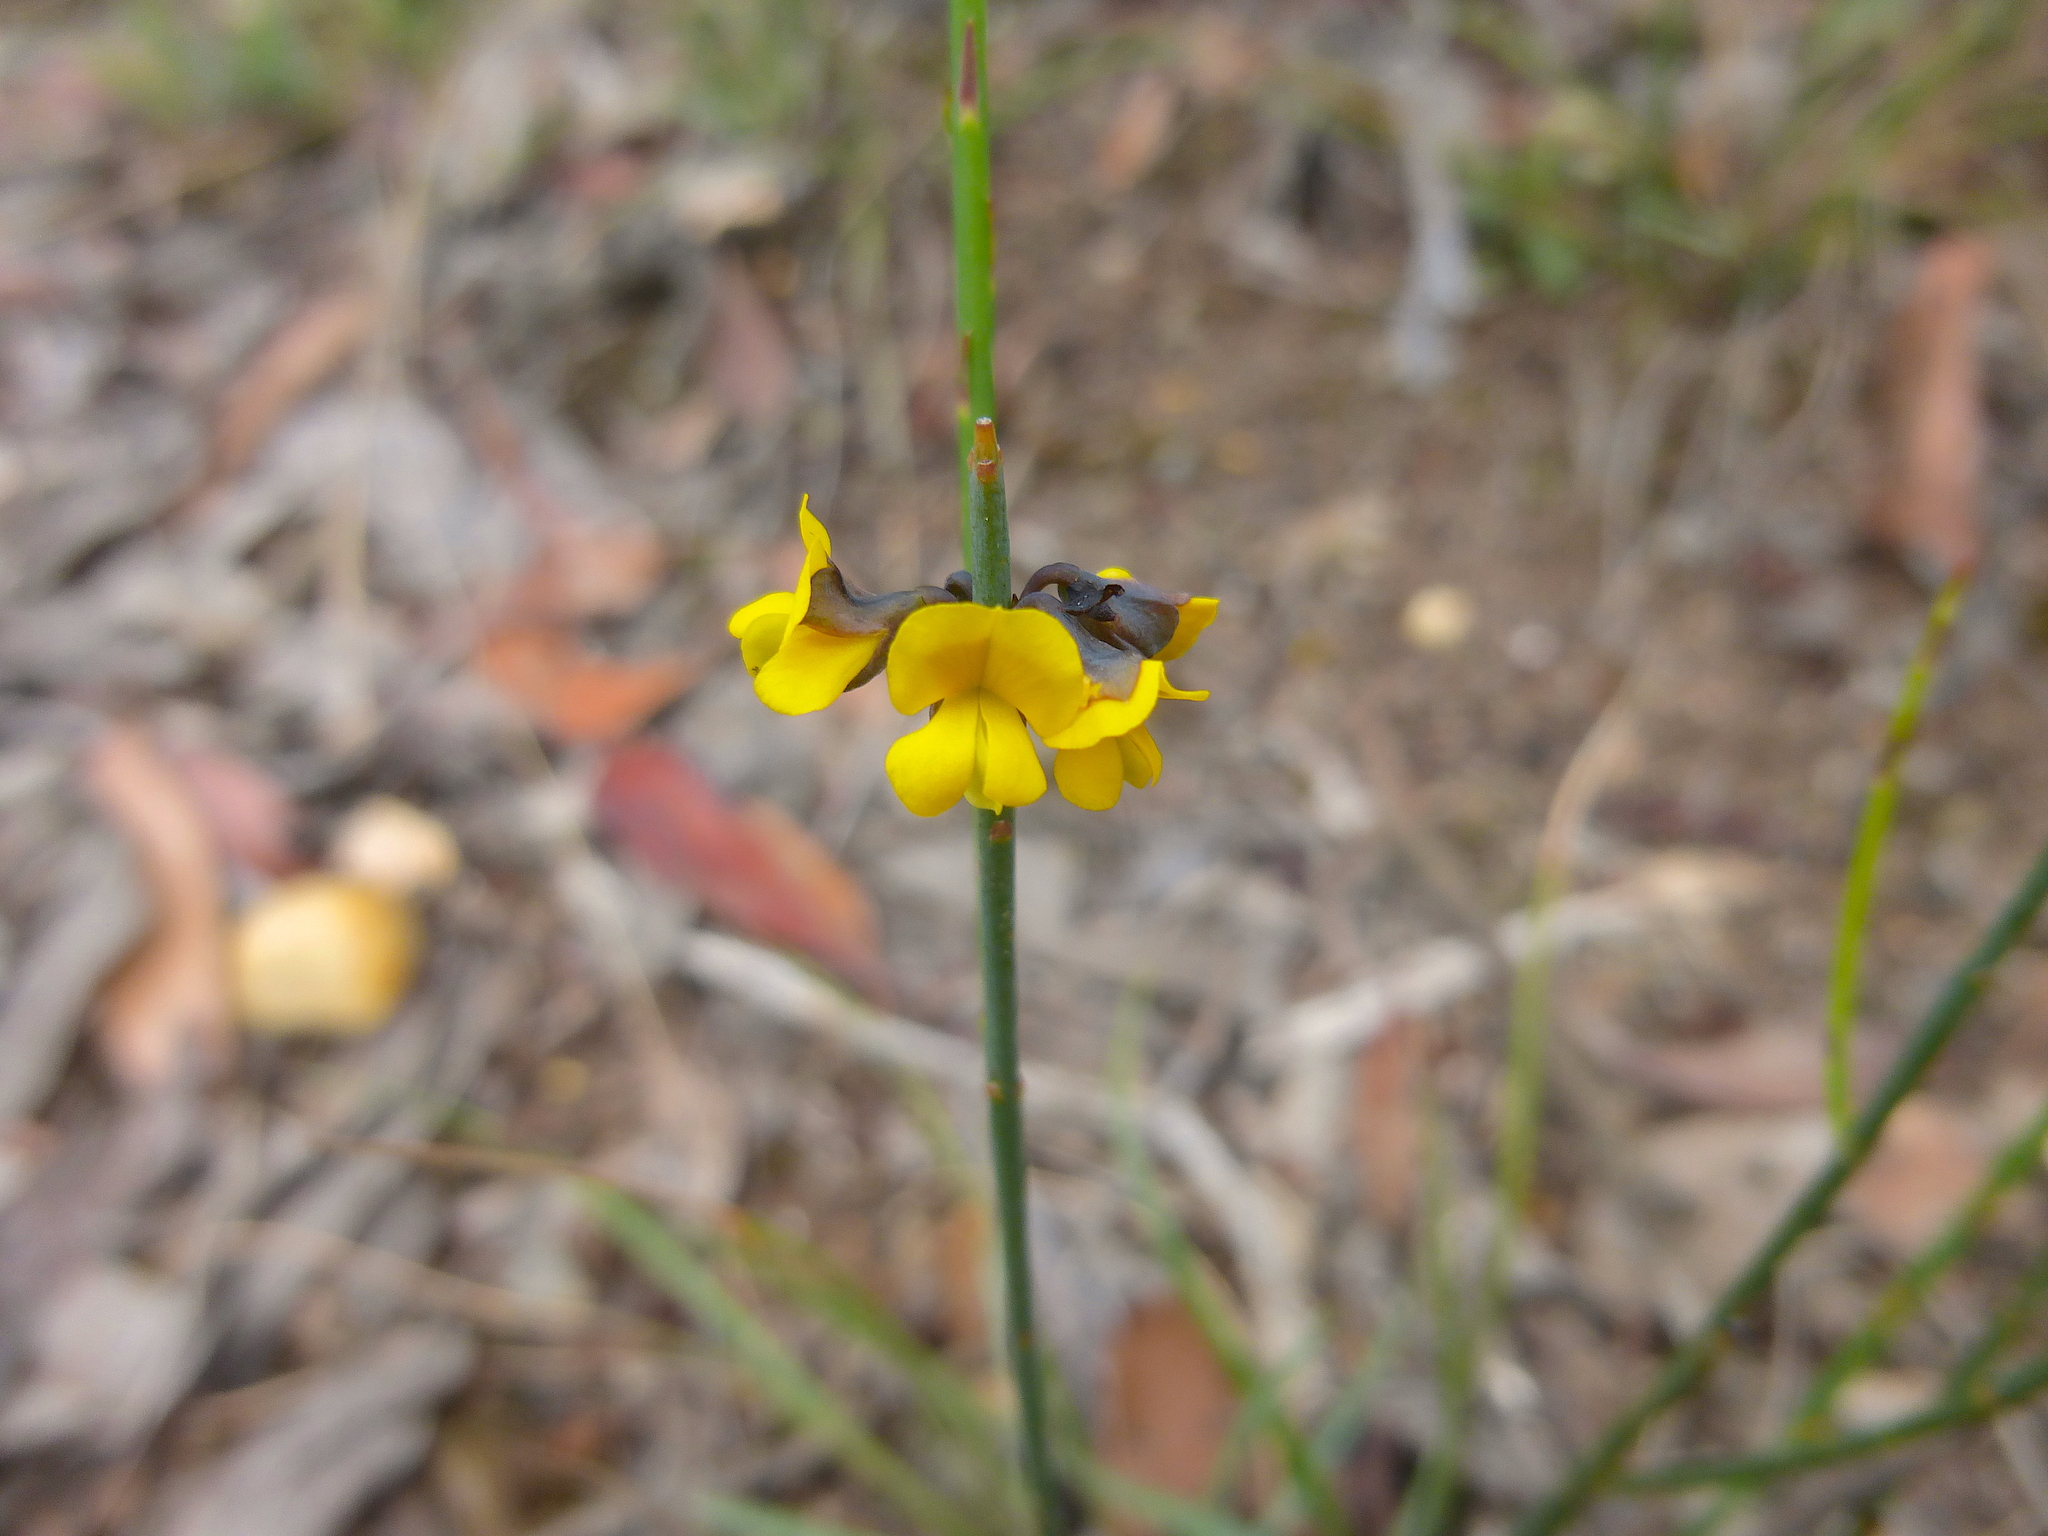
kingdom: Plantae
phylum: Tracheophyta
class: Magnoliopsida
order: Fabales
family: Fabaceae
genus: Sphaerolobium
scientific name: Sphaerolobium minus
